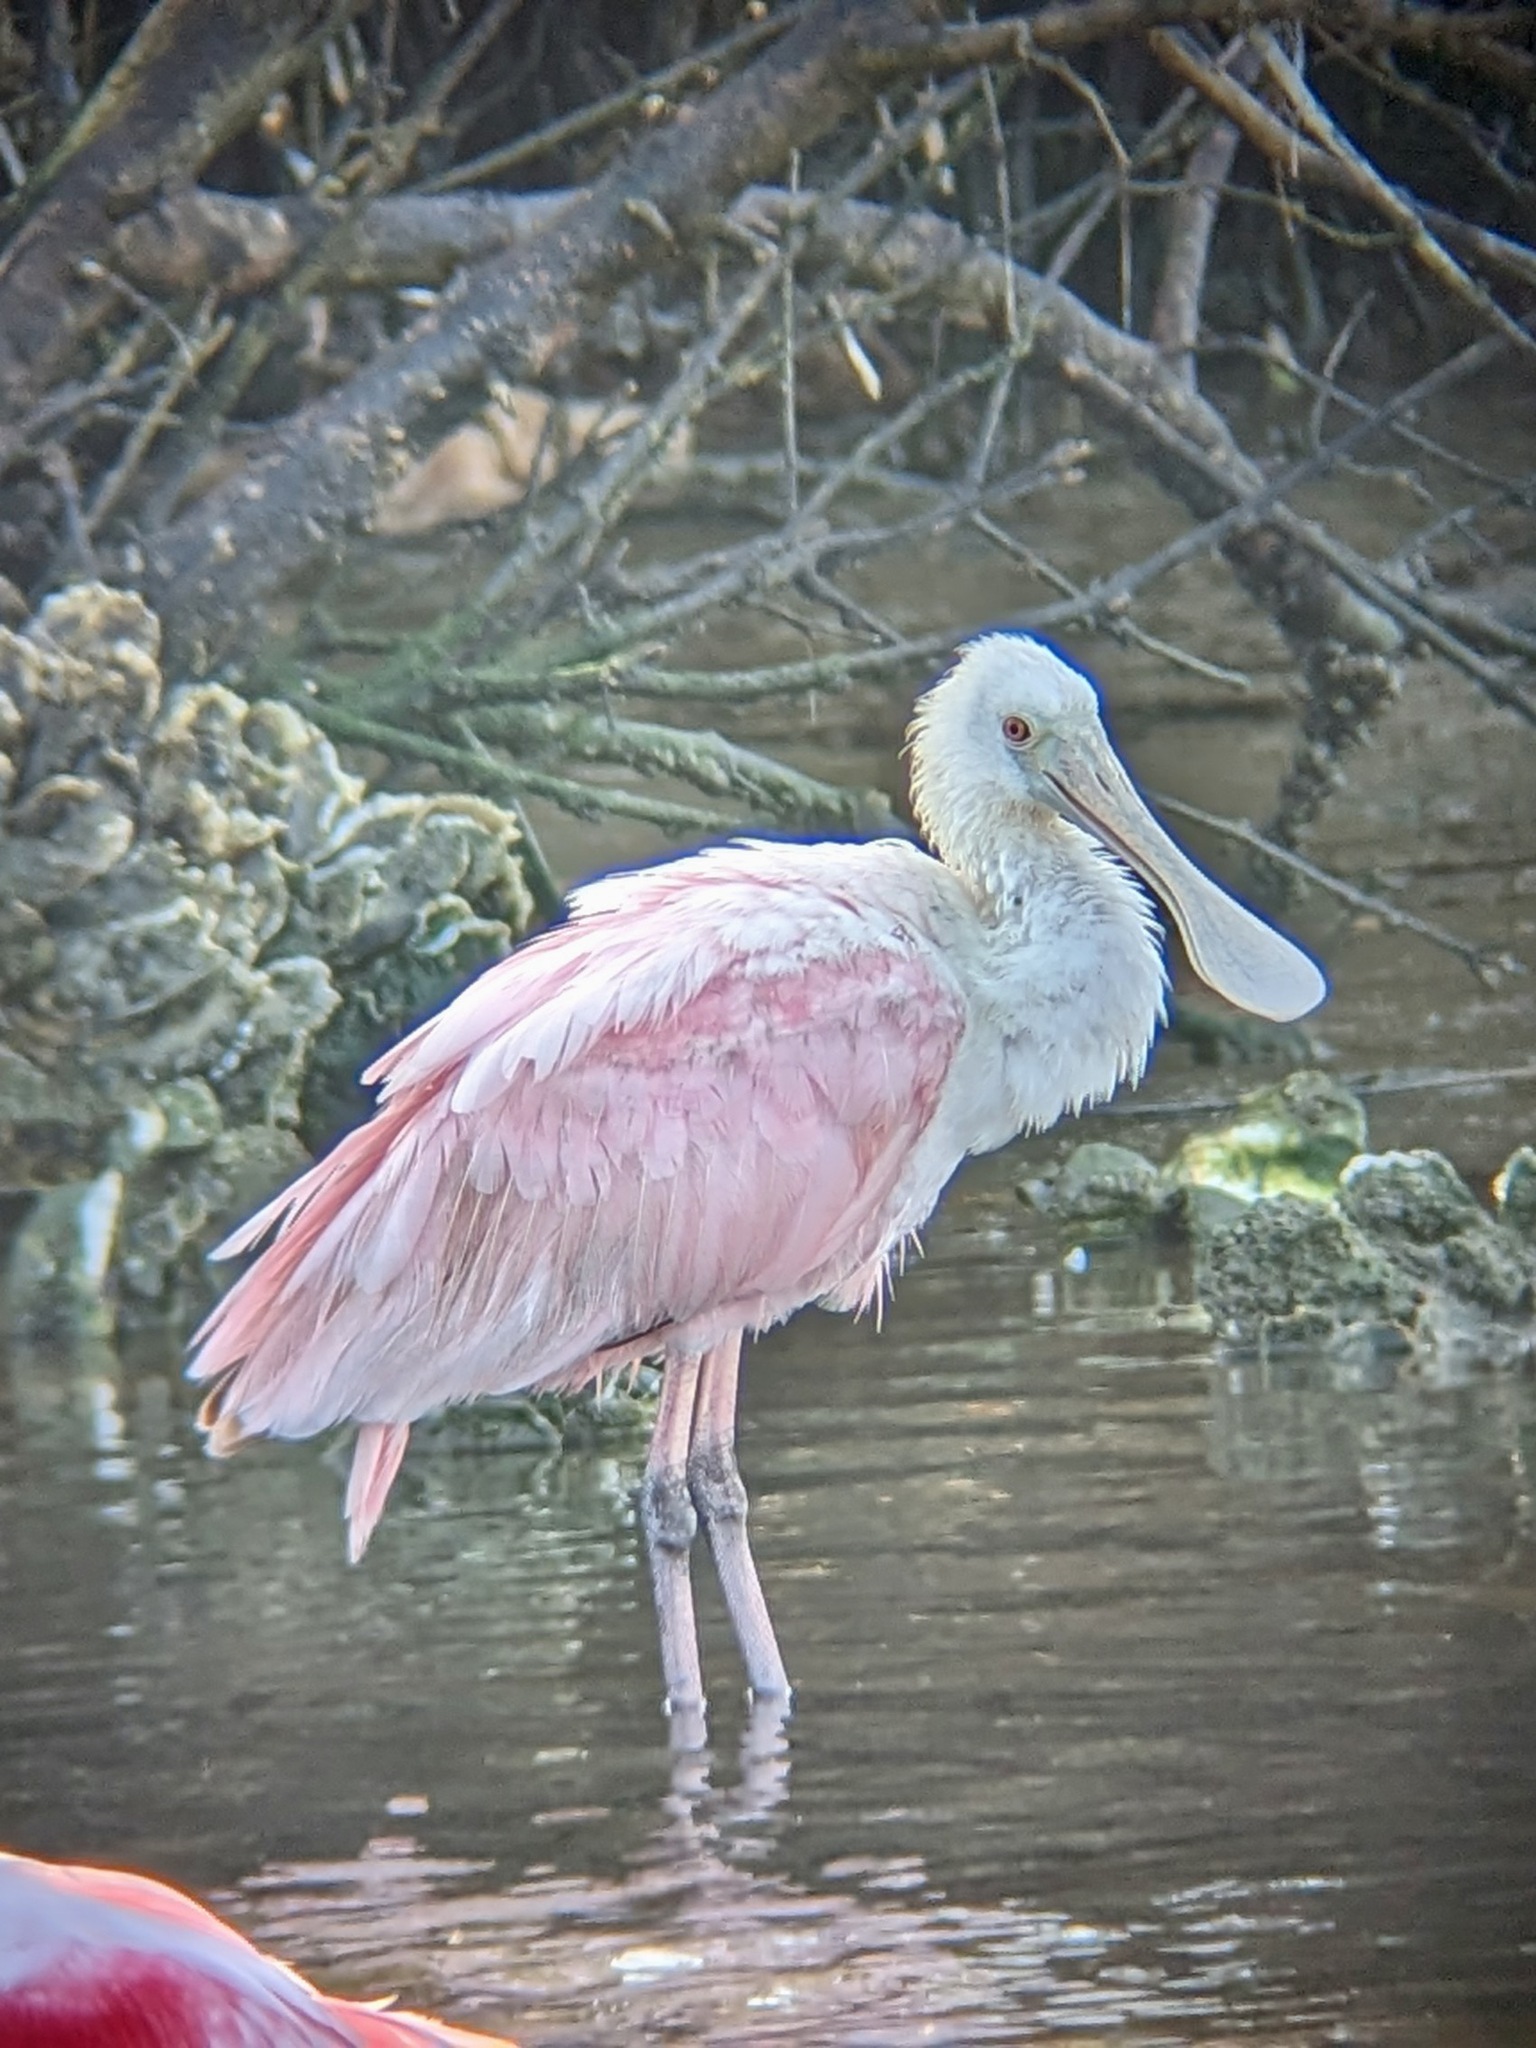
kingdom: Animalia
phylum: Chordata
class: Aves
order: Pelecaniformes
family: Threskiornithidae
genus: Platalea
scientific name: Platalea ajaja
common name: Roseate spoonbill
